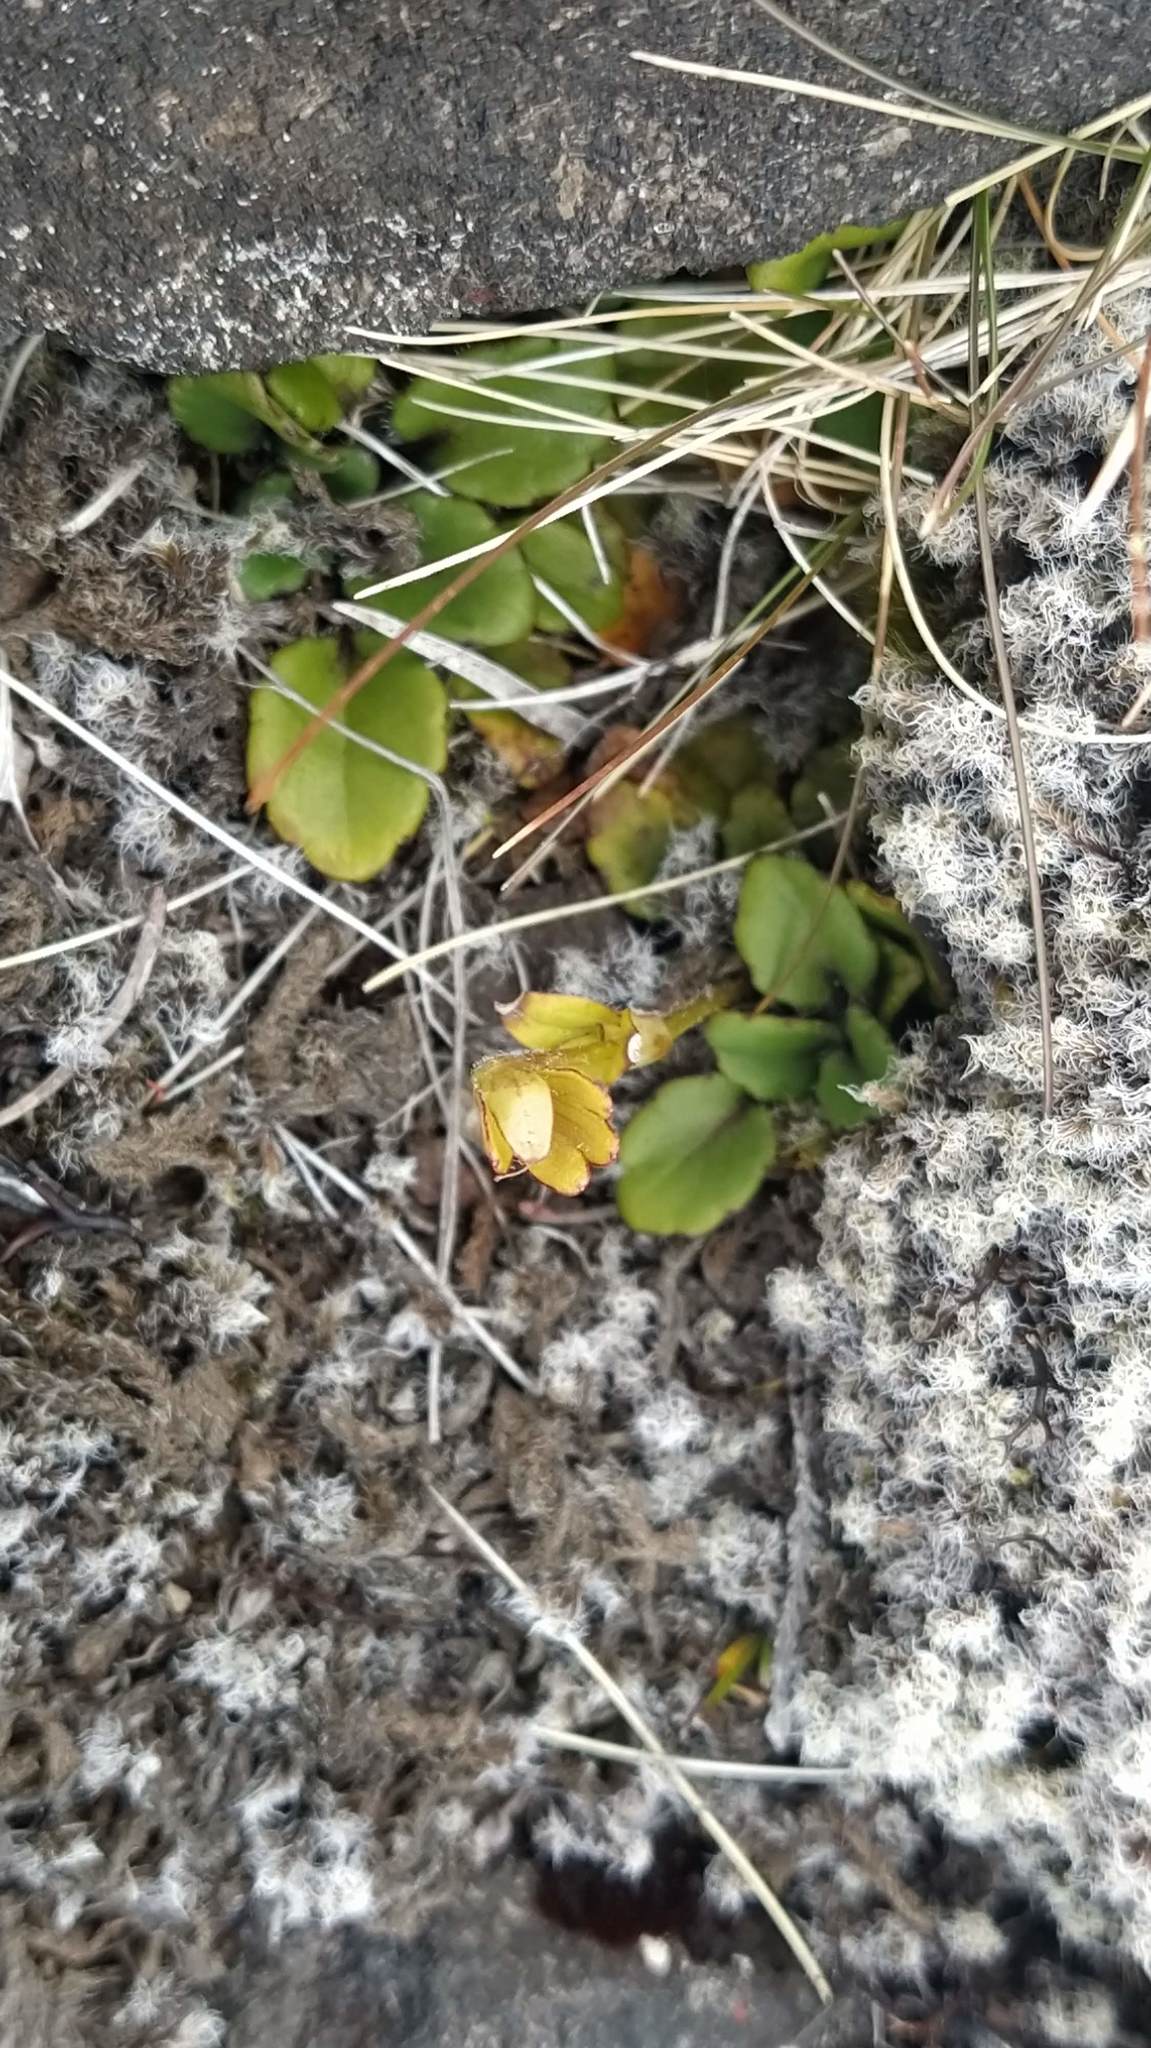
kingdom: Plantae
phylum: Tracheophyta
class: Magnoliopsida
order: Lamiales
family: Plantaginaceae
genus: Ourisia
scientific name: Ourisia vulcanica
